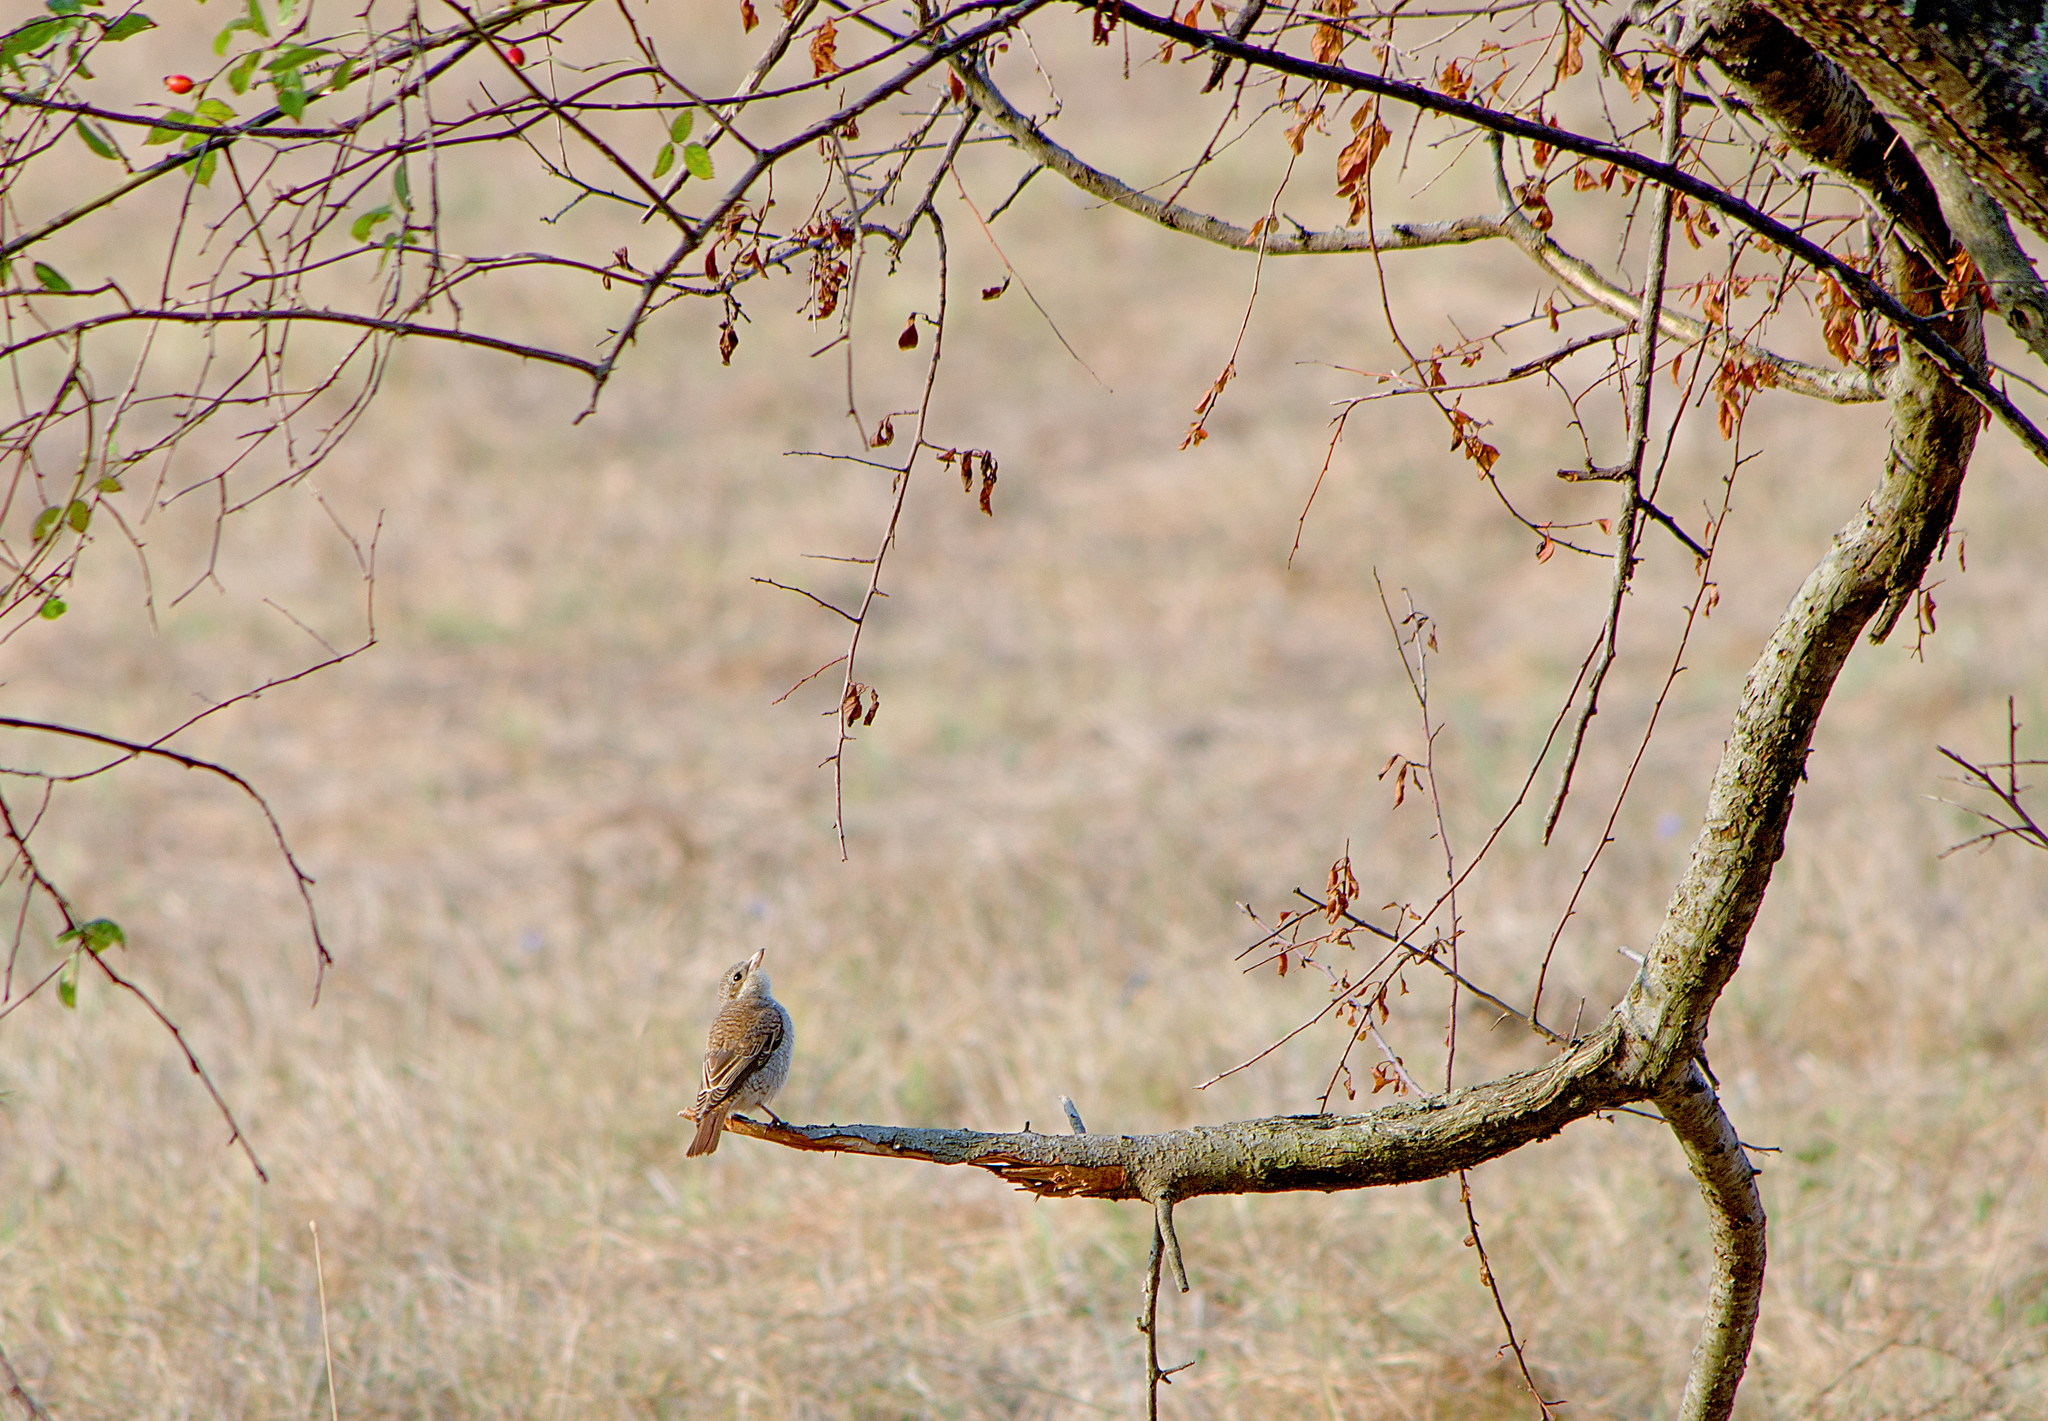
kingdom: Animalia
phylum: Chordata
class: Aves
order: Passeriformes
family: Laniidae
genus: Lanius
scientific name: Lanius collurio
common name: Red-backed shrike
